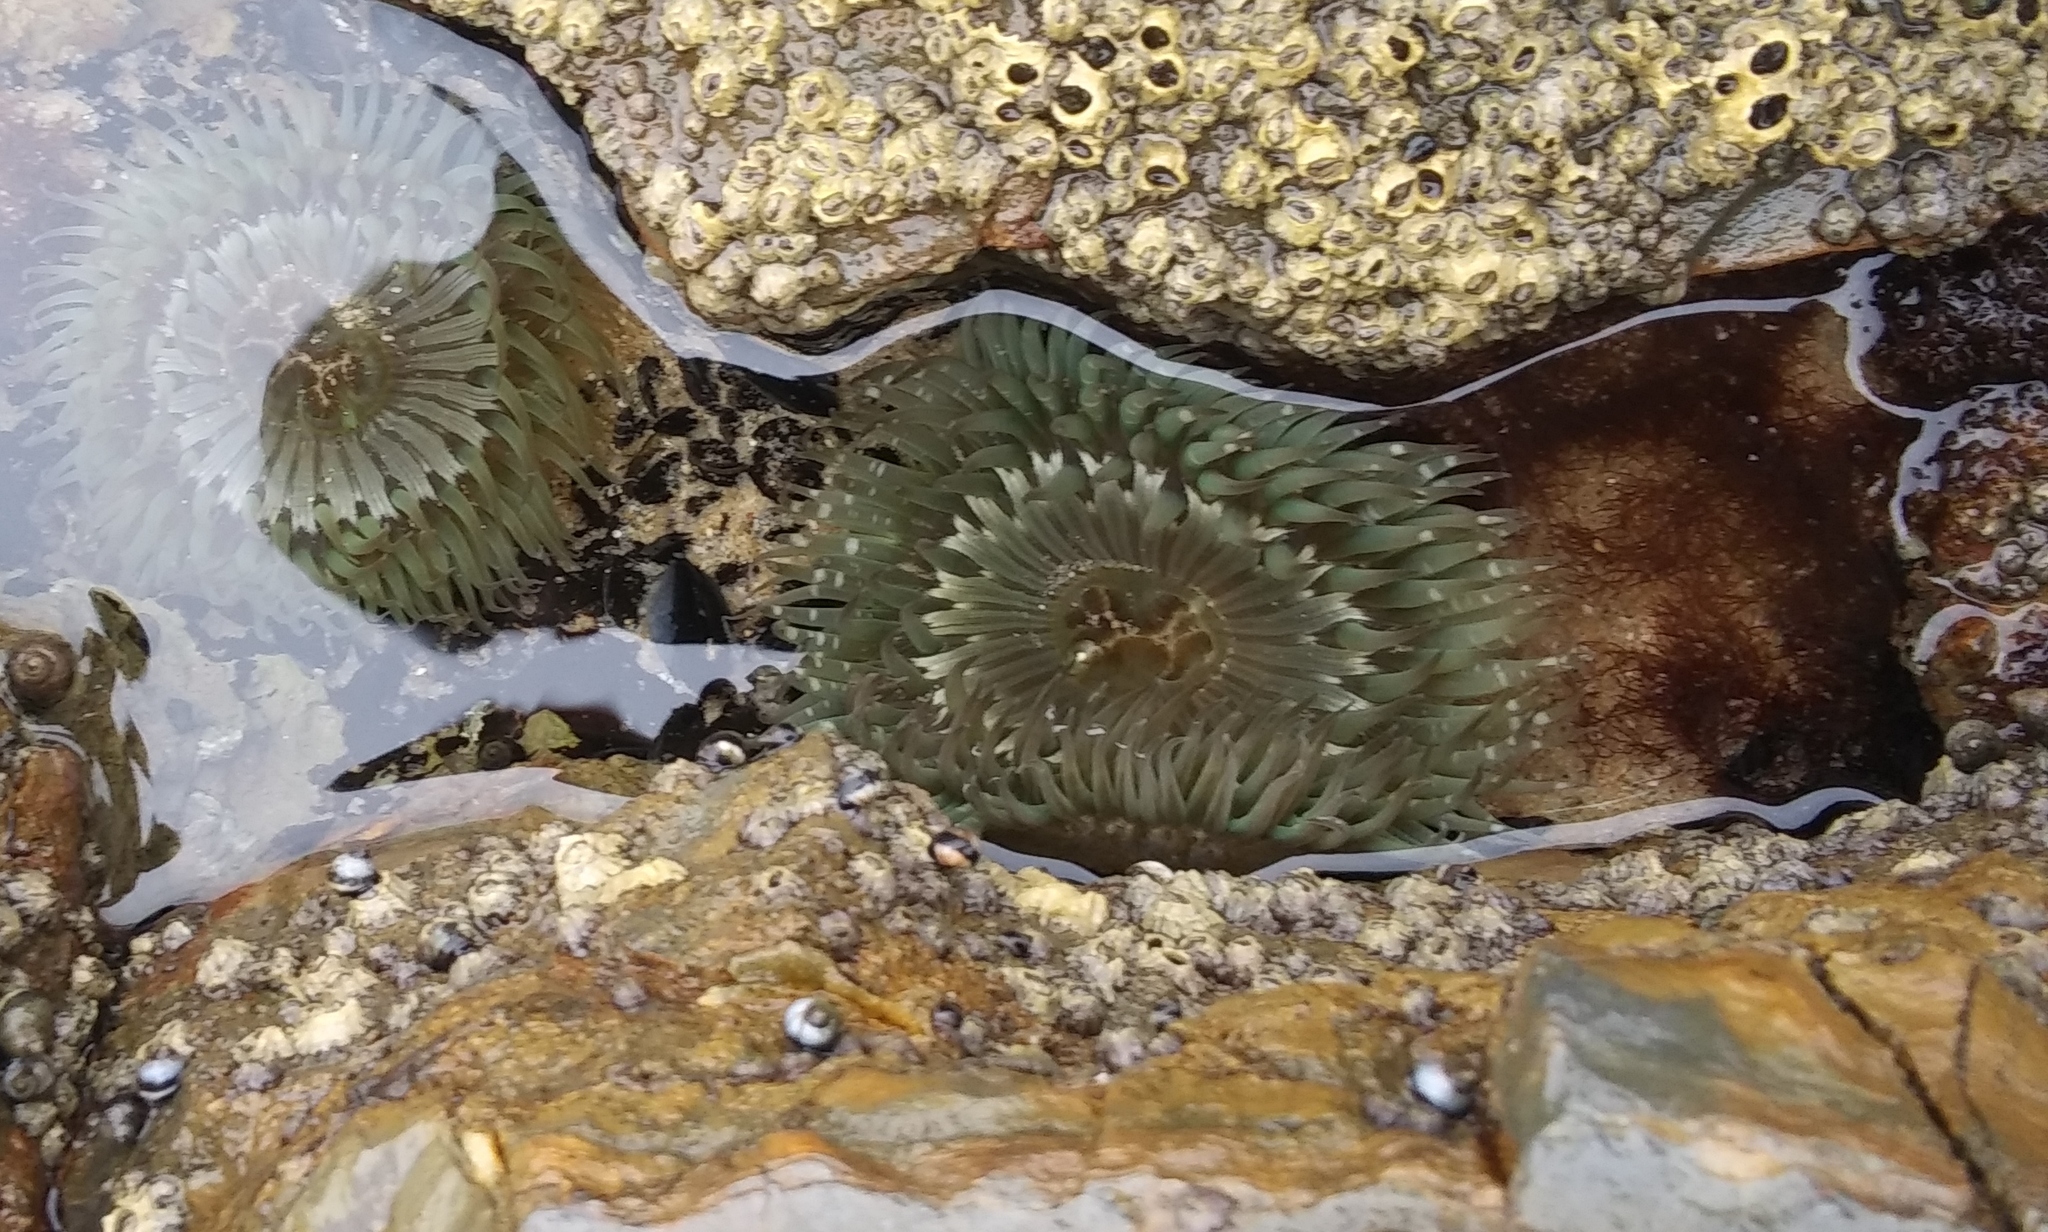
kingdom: Animalia
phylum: Cnidaria
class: Anthozoa
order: Actiniaria
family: Actiniidae
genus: Anthopleura
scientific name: Anthopleura sola
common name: Sun anemone
